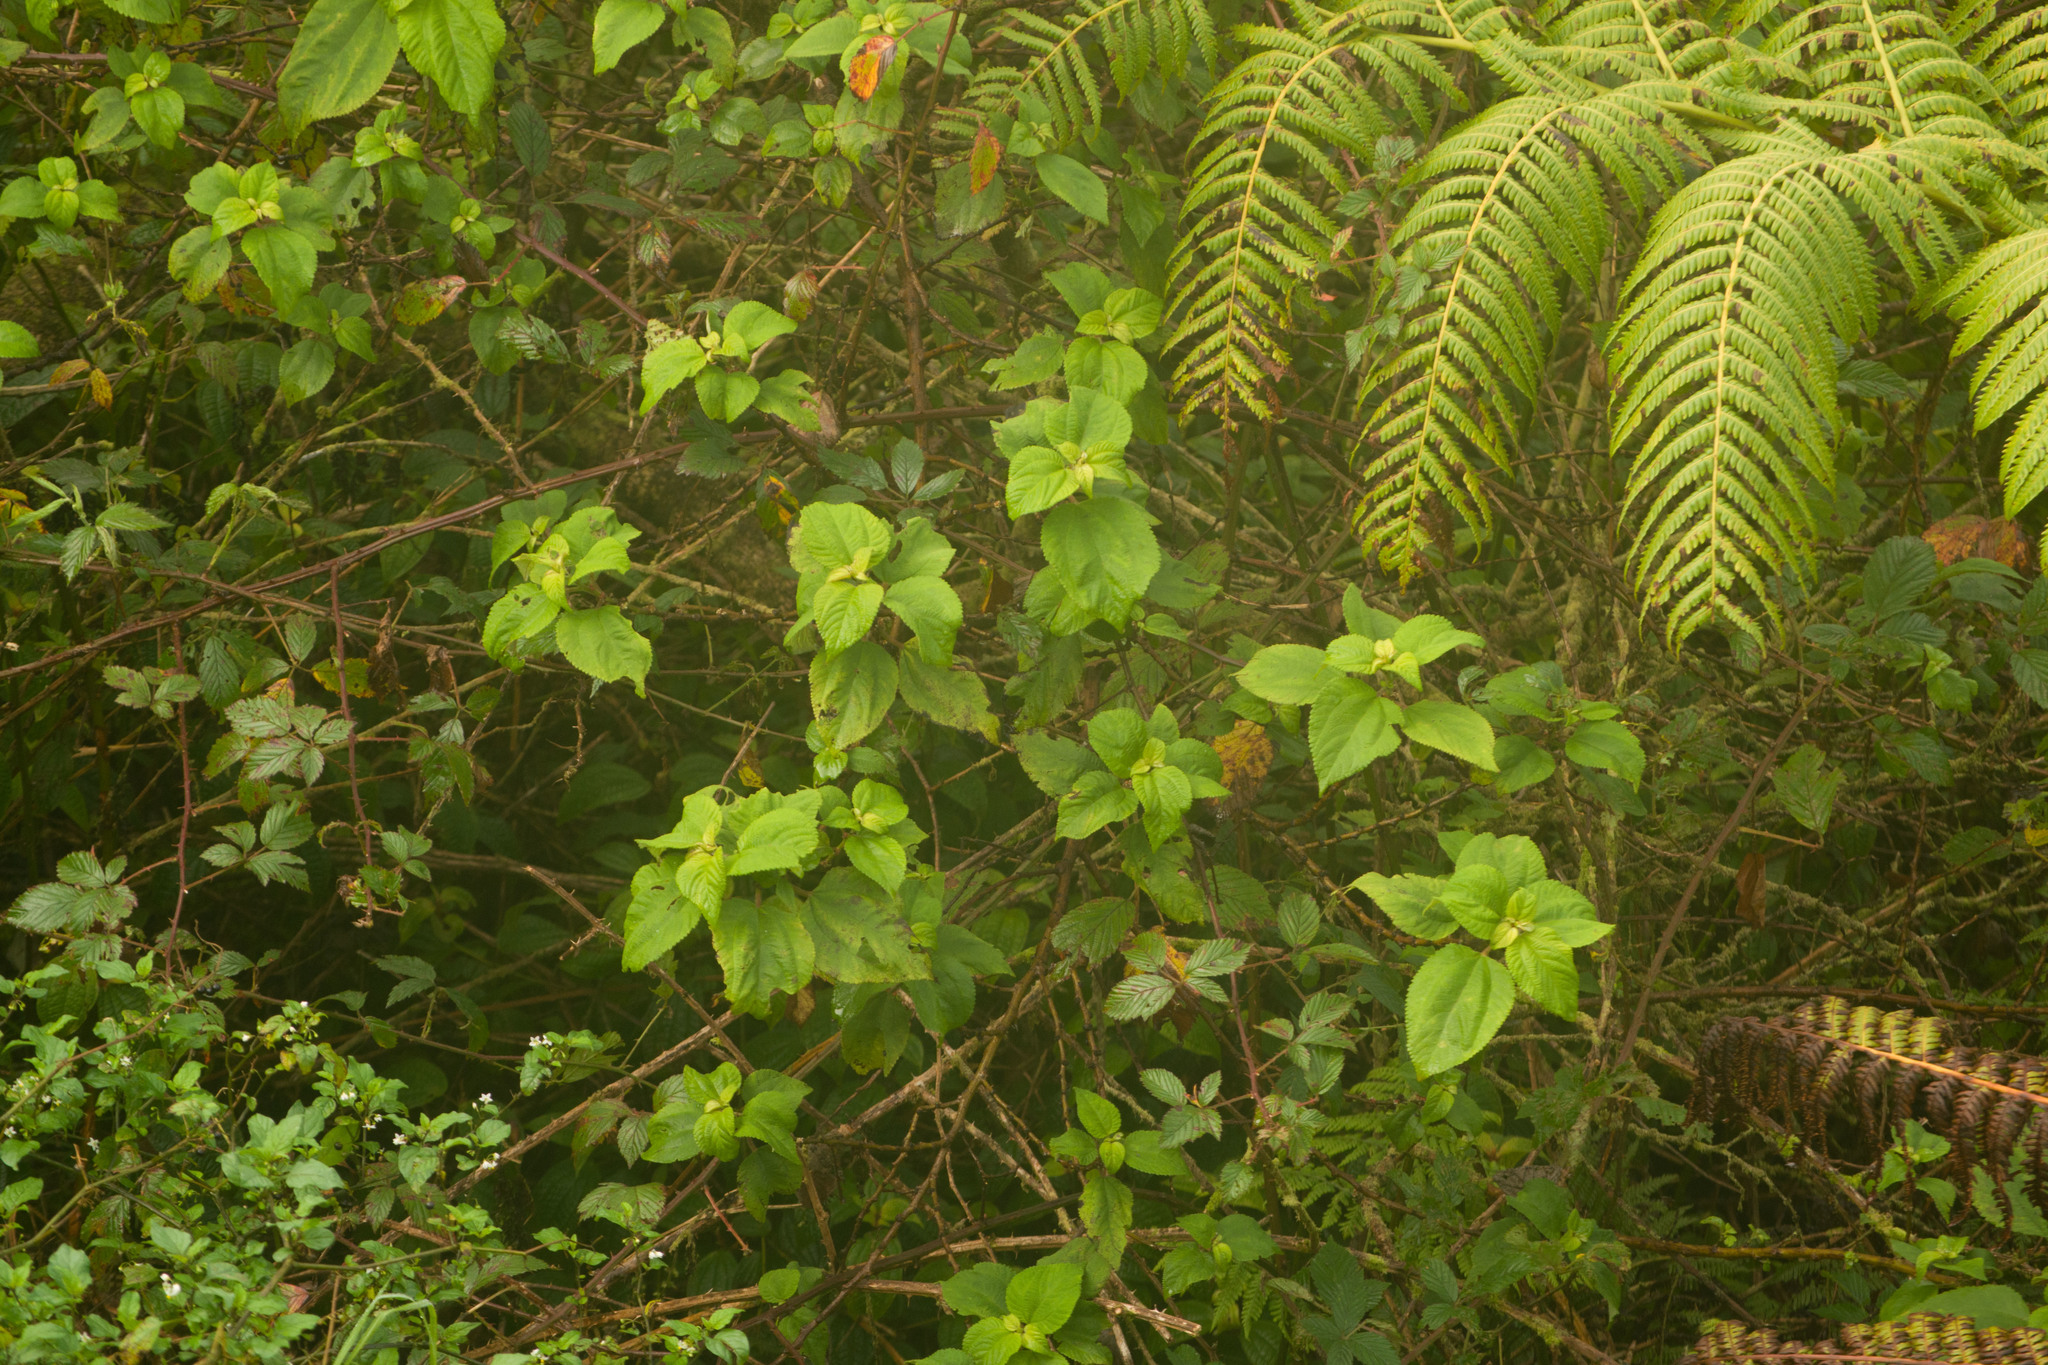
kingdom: Plantae
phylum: Tracheophyta
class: Magnoliopsida
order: Rosales
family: Urticaceae
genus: Pipturus
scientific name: Pipturus albidus
